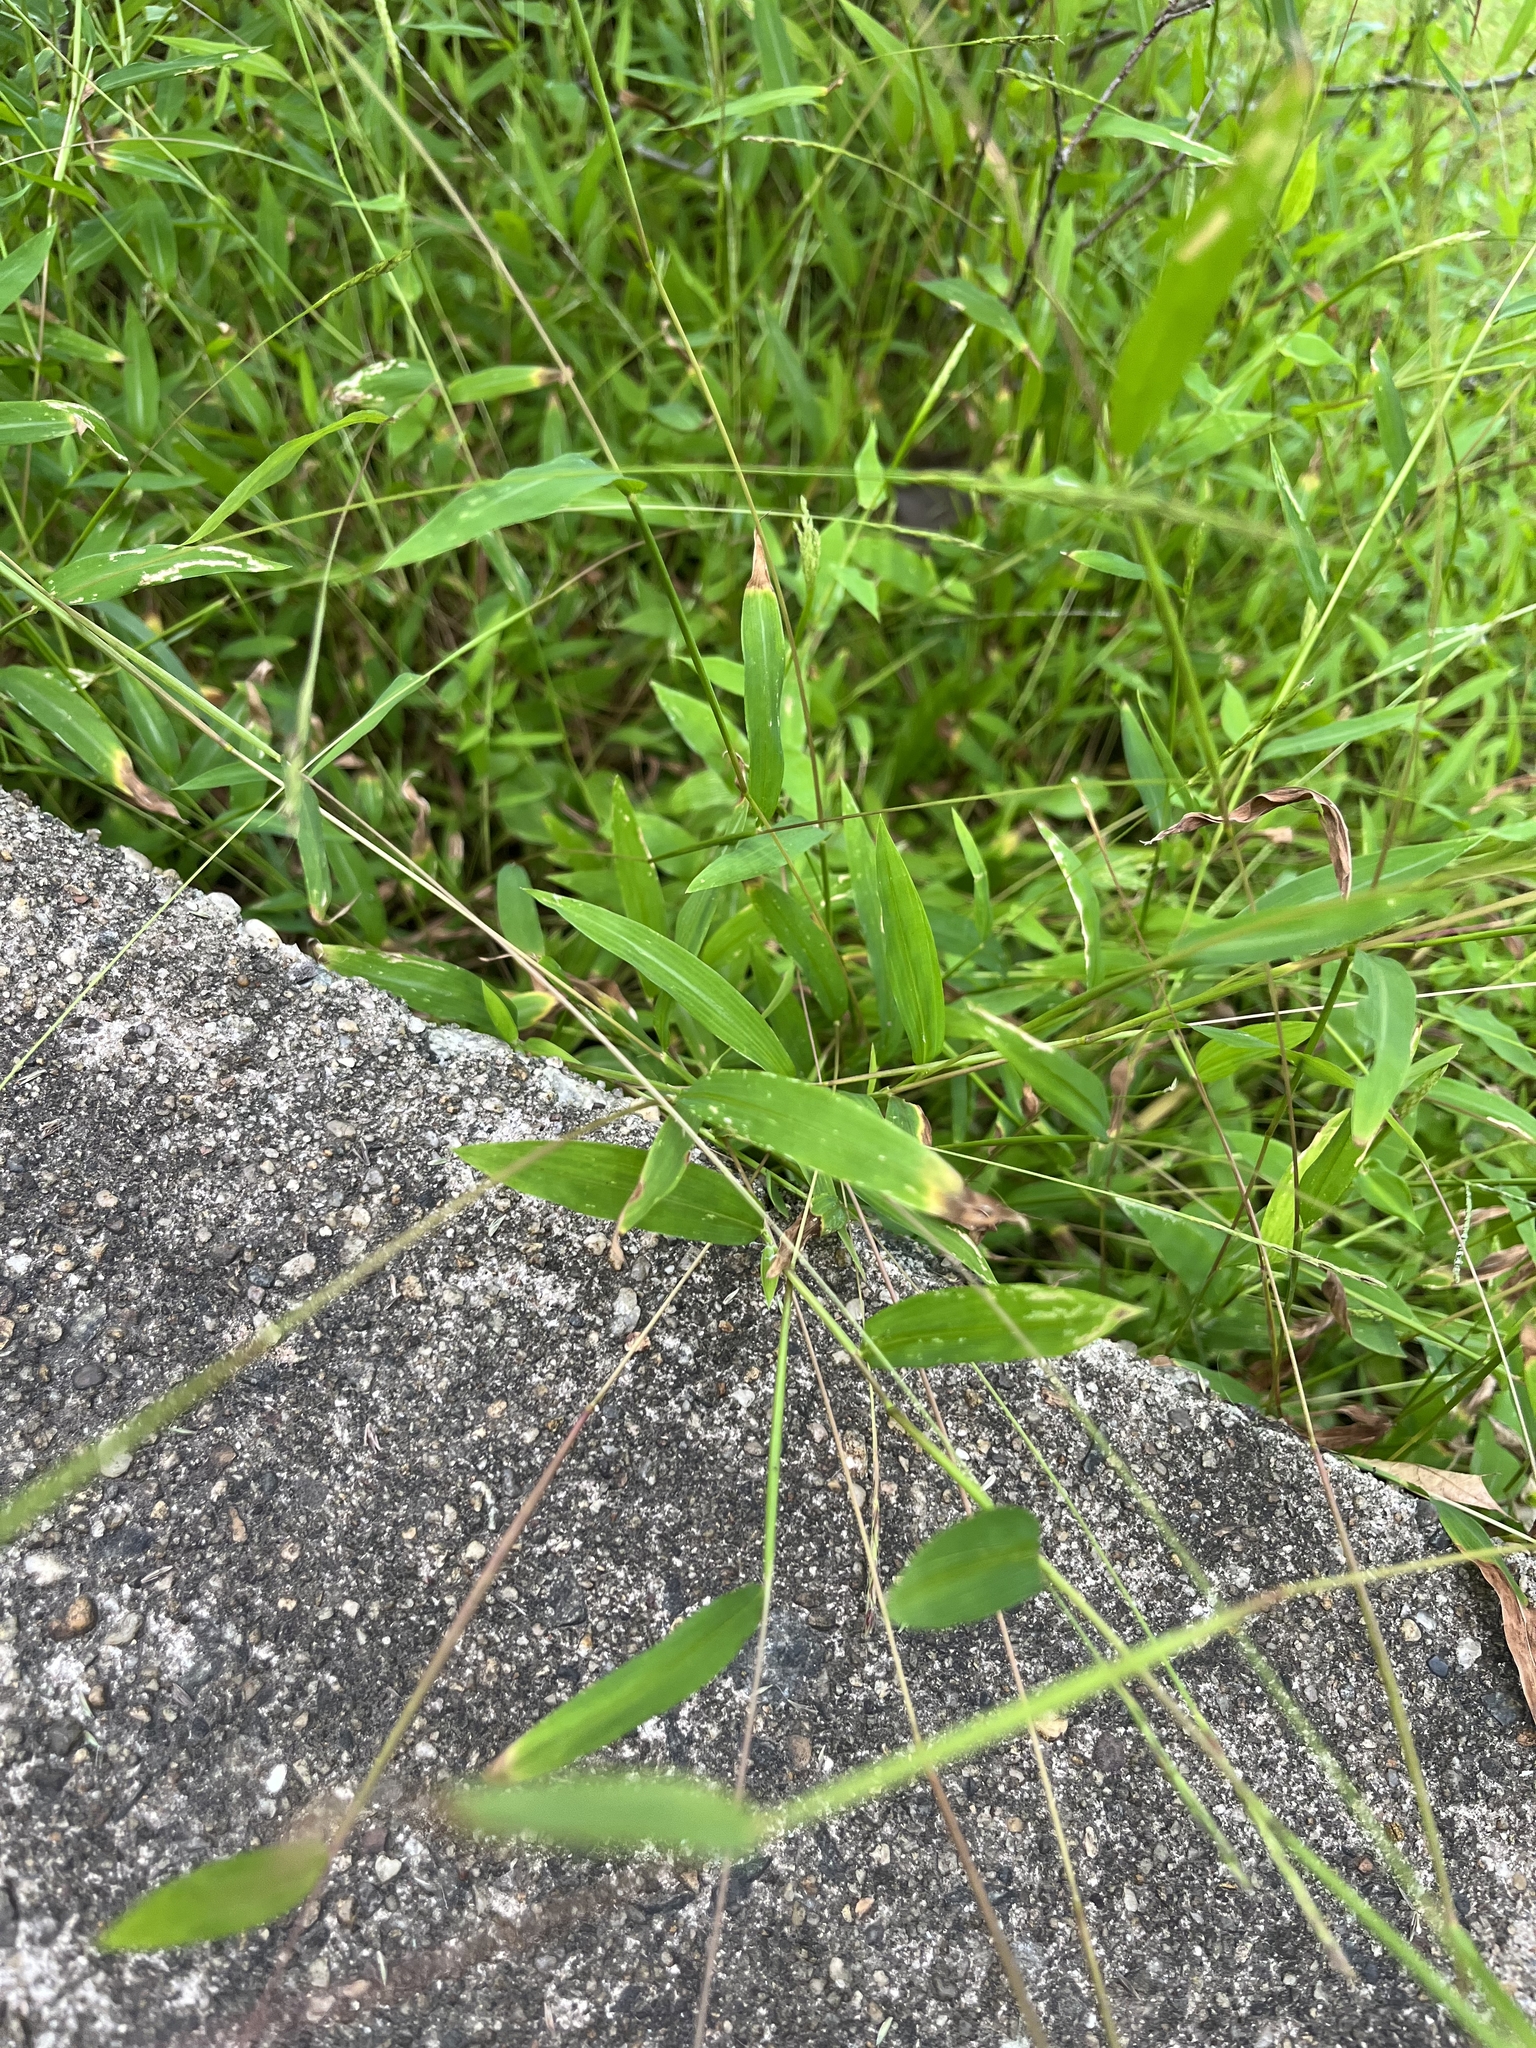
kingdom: Plantae
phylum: Tracheophyta
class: Liliopsida
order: Poales
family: Poaceae
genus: Microstegium
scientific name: Microstegium vimineum
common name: Japanese stiltgrass
